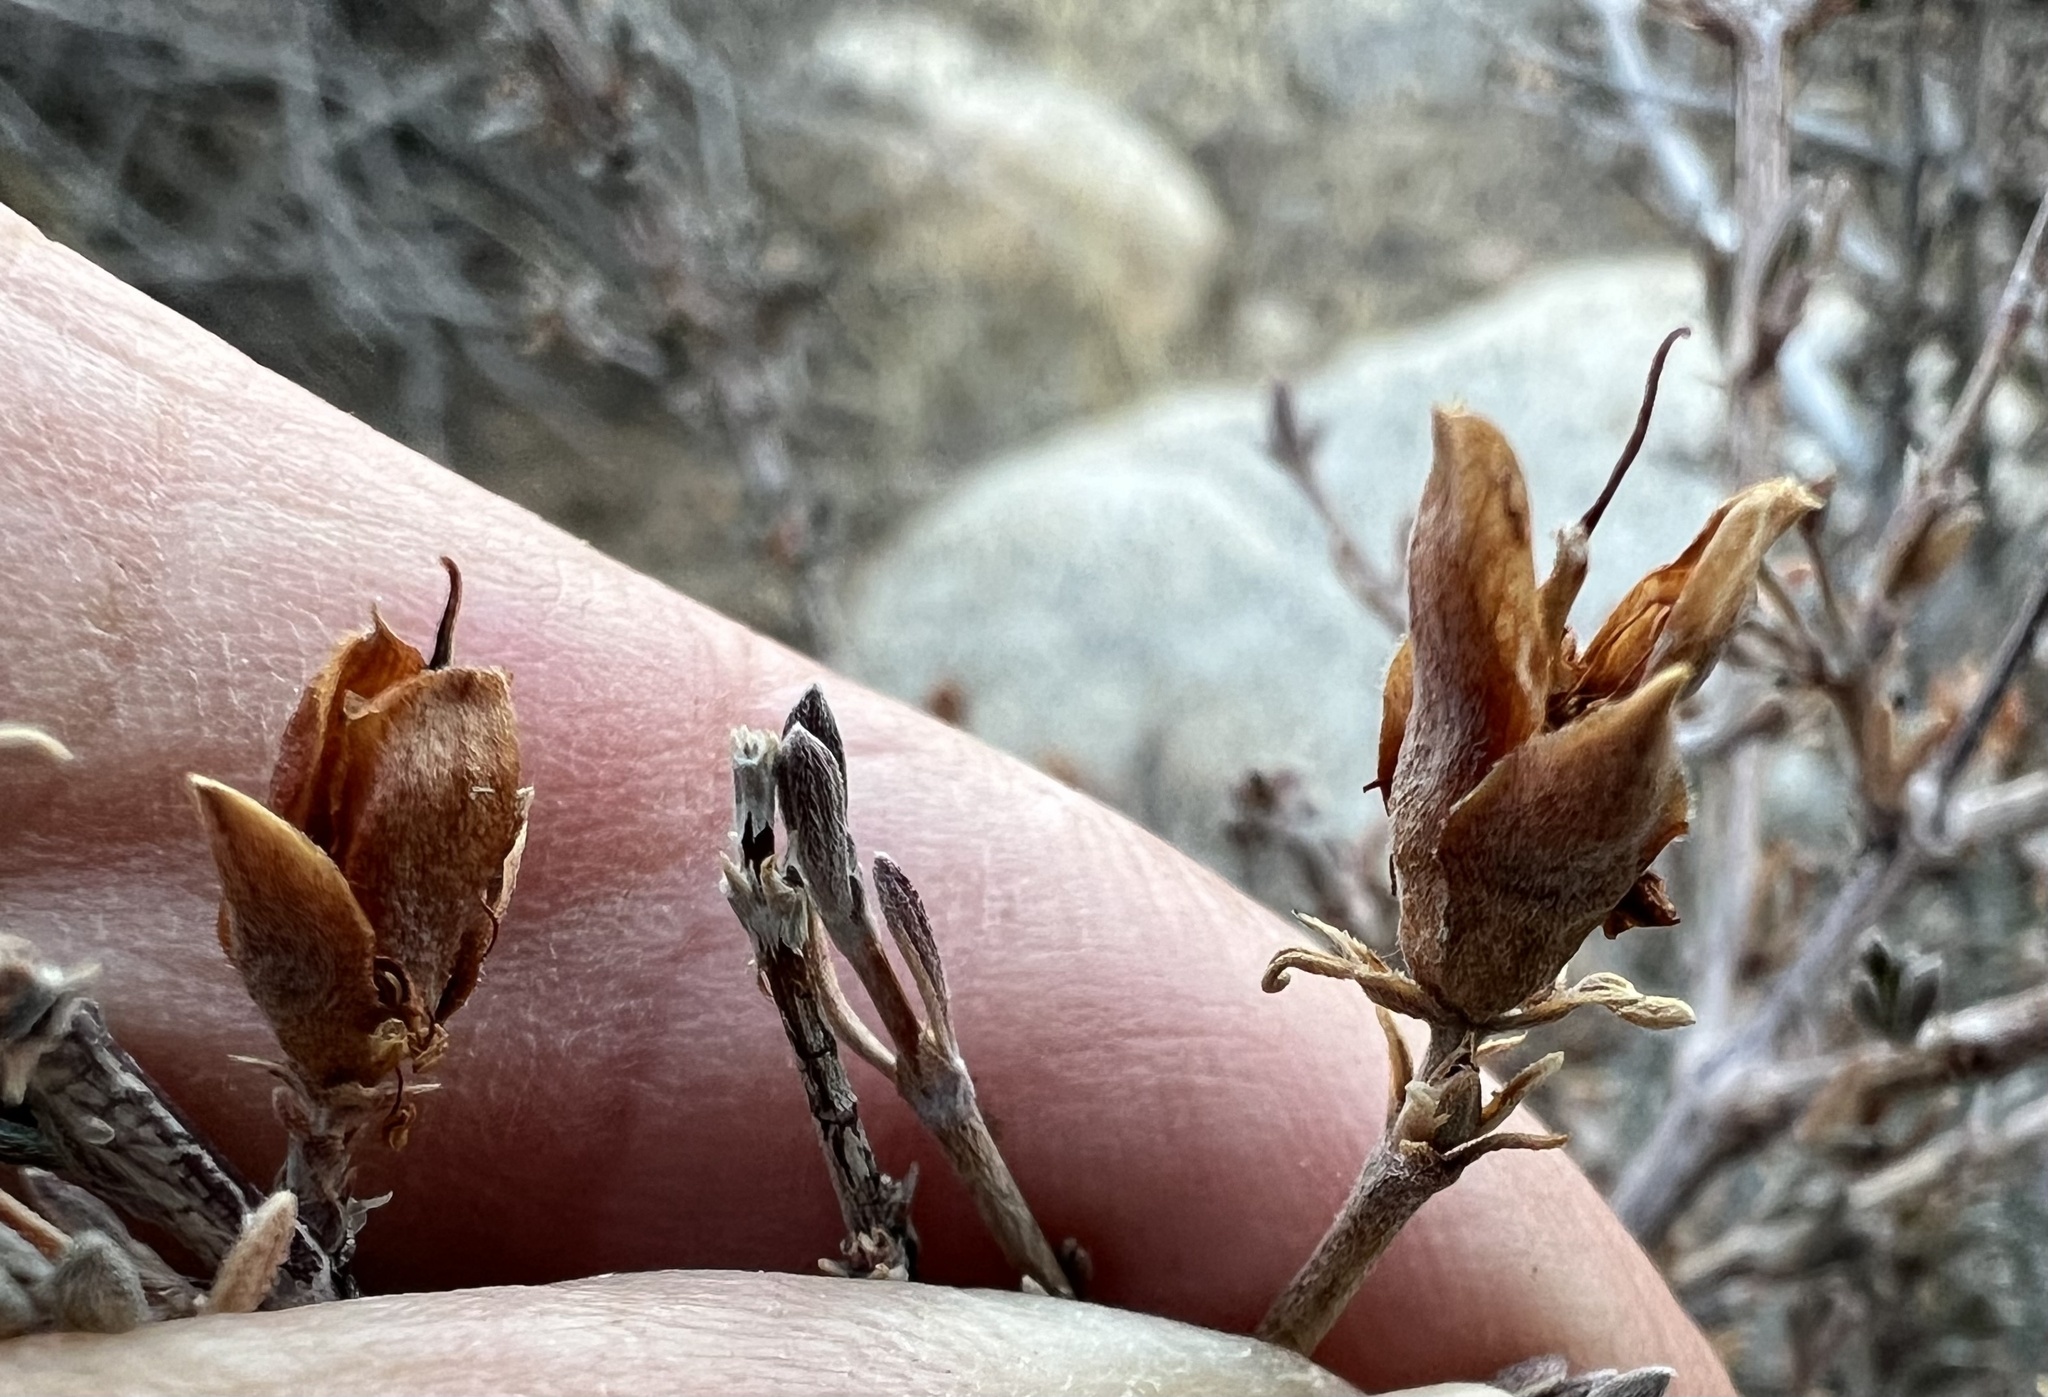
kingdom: Plantae
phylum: Tracheophyta
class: Magnoliopsida
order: Rosales
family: Rosaceae
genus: Coleogyne
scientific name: Coleogyne ramosissima
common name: Blackbrush
